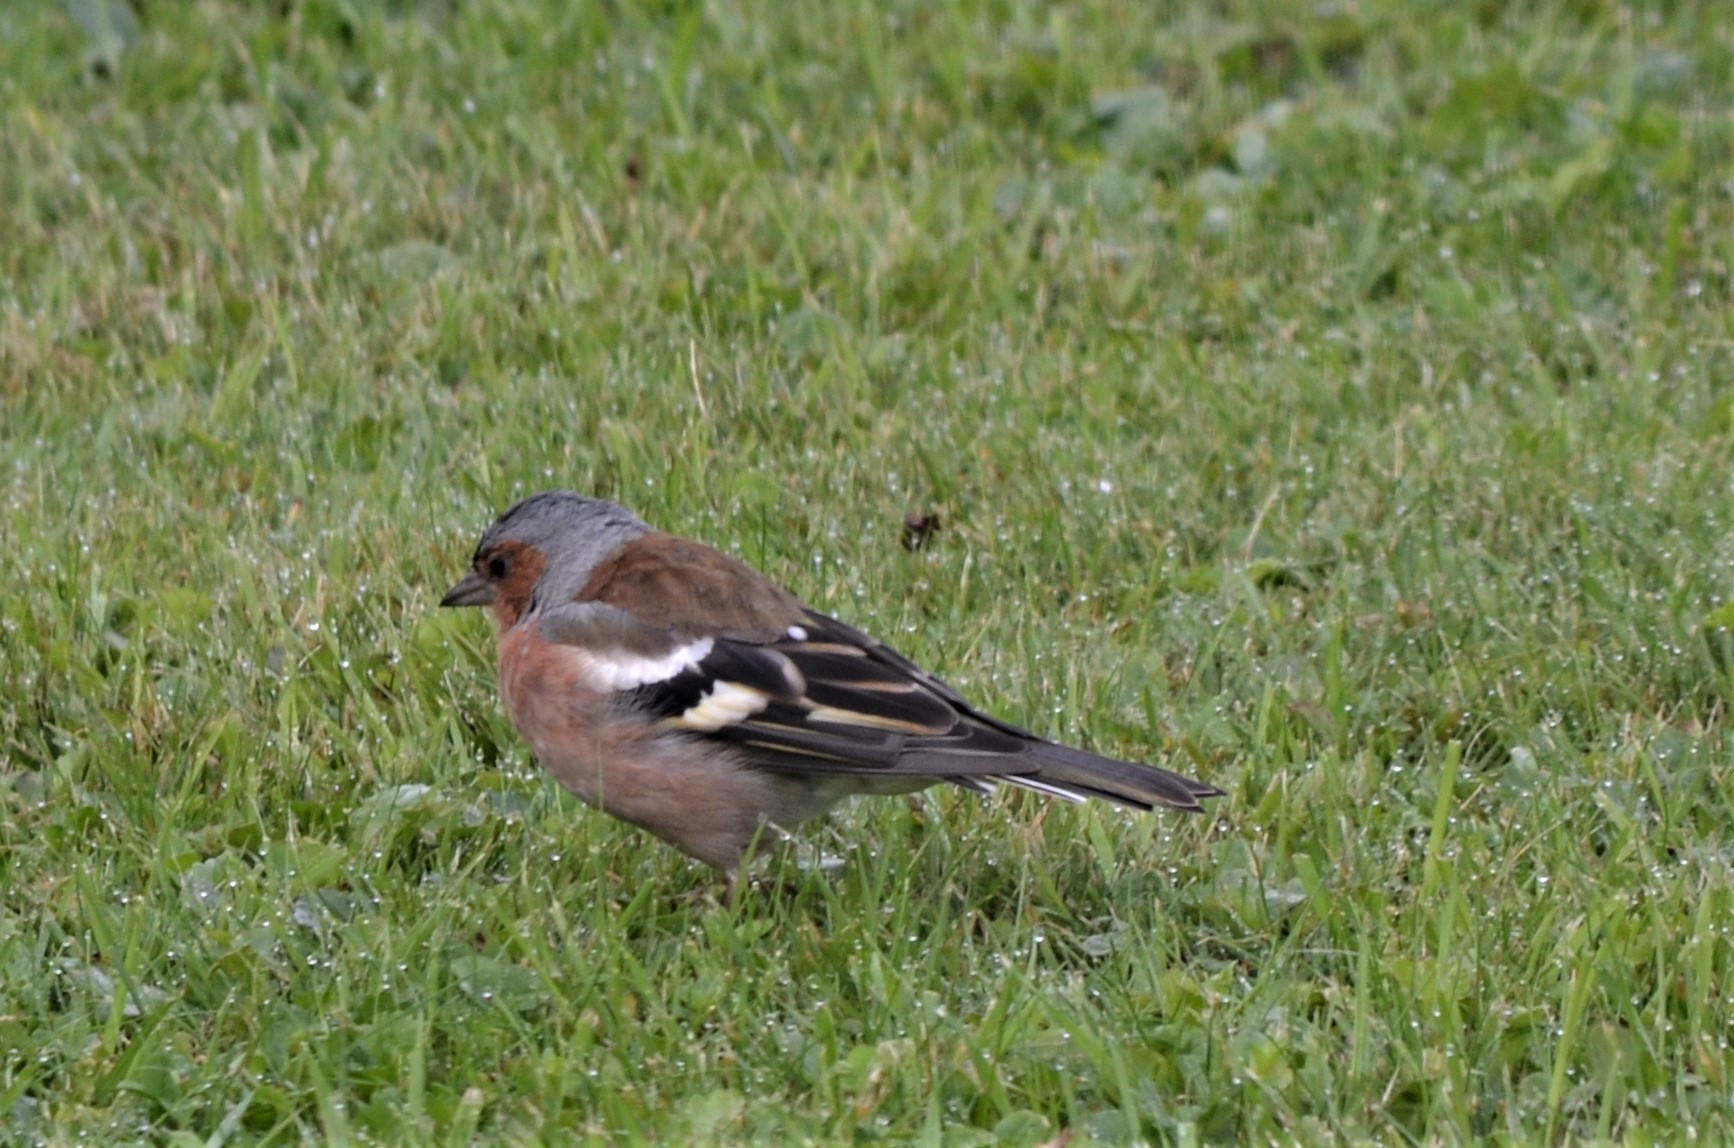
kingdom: Animalia
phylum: Chordata
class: Aves
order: Passeriformes
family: Fringillidae
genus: Fringilla
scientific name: Fringilla coelebs
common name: Common chaffinch
